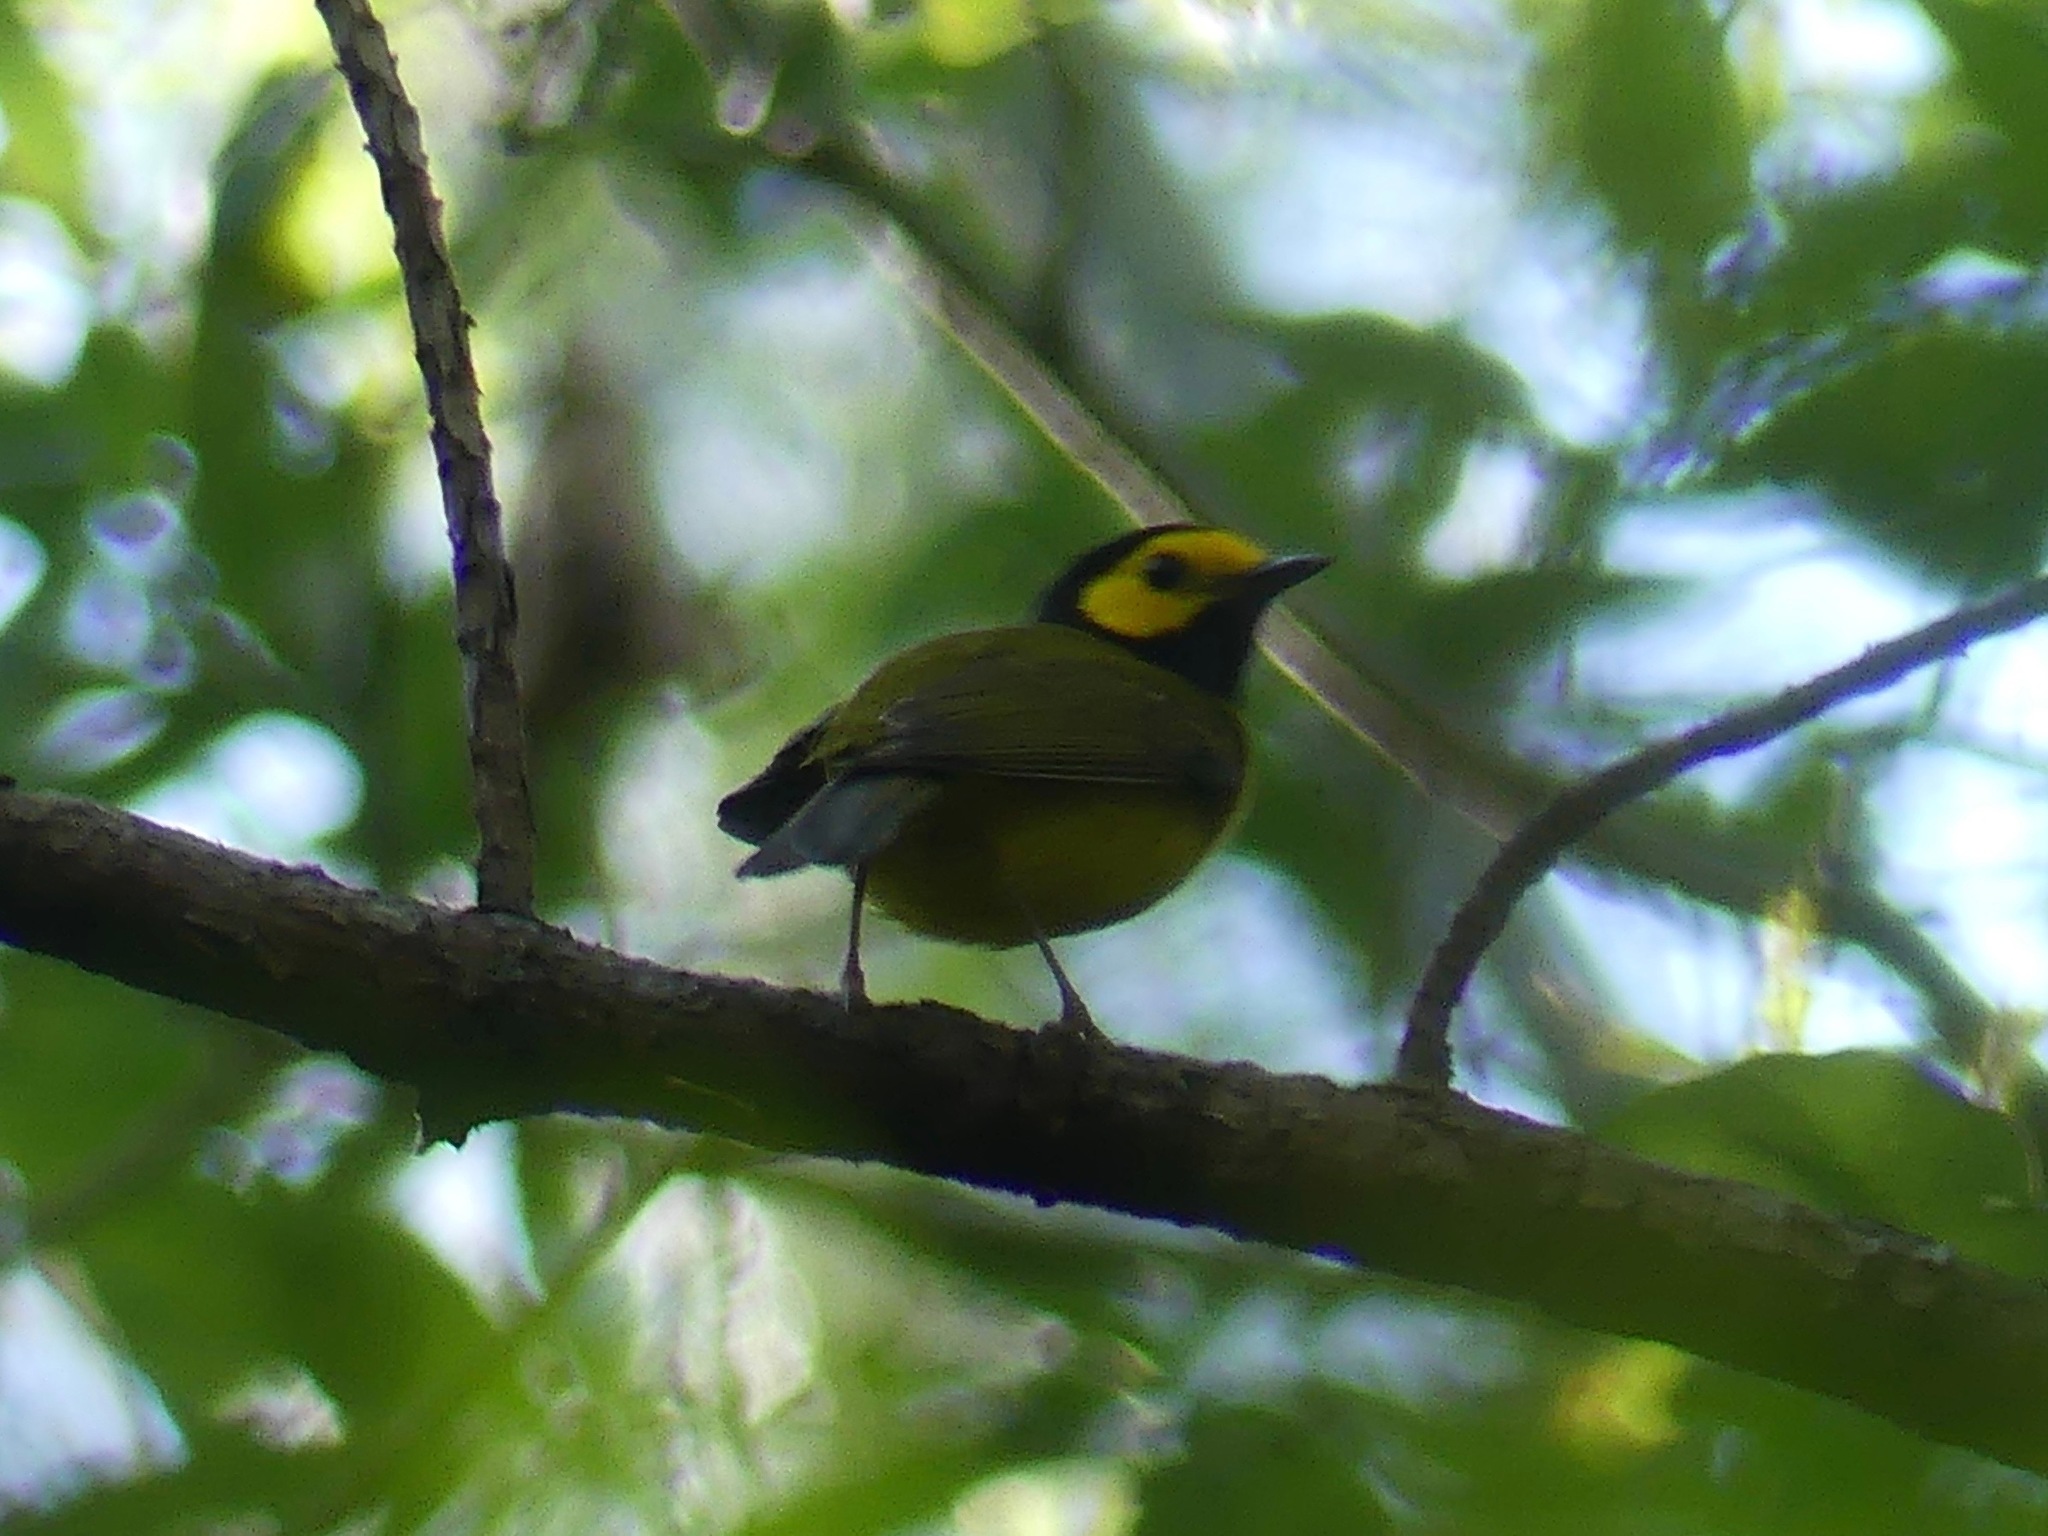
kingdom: Animalia
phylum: Chordata
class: Aves
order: Passeriformes
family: Parulidae
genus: Setophaga
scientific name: Setophaga citrina
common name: Hooded warbler
